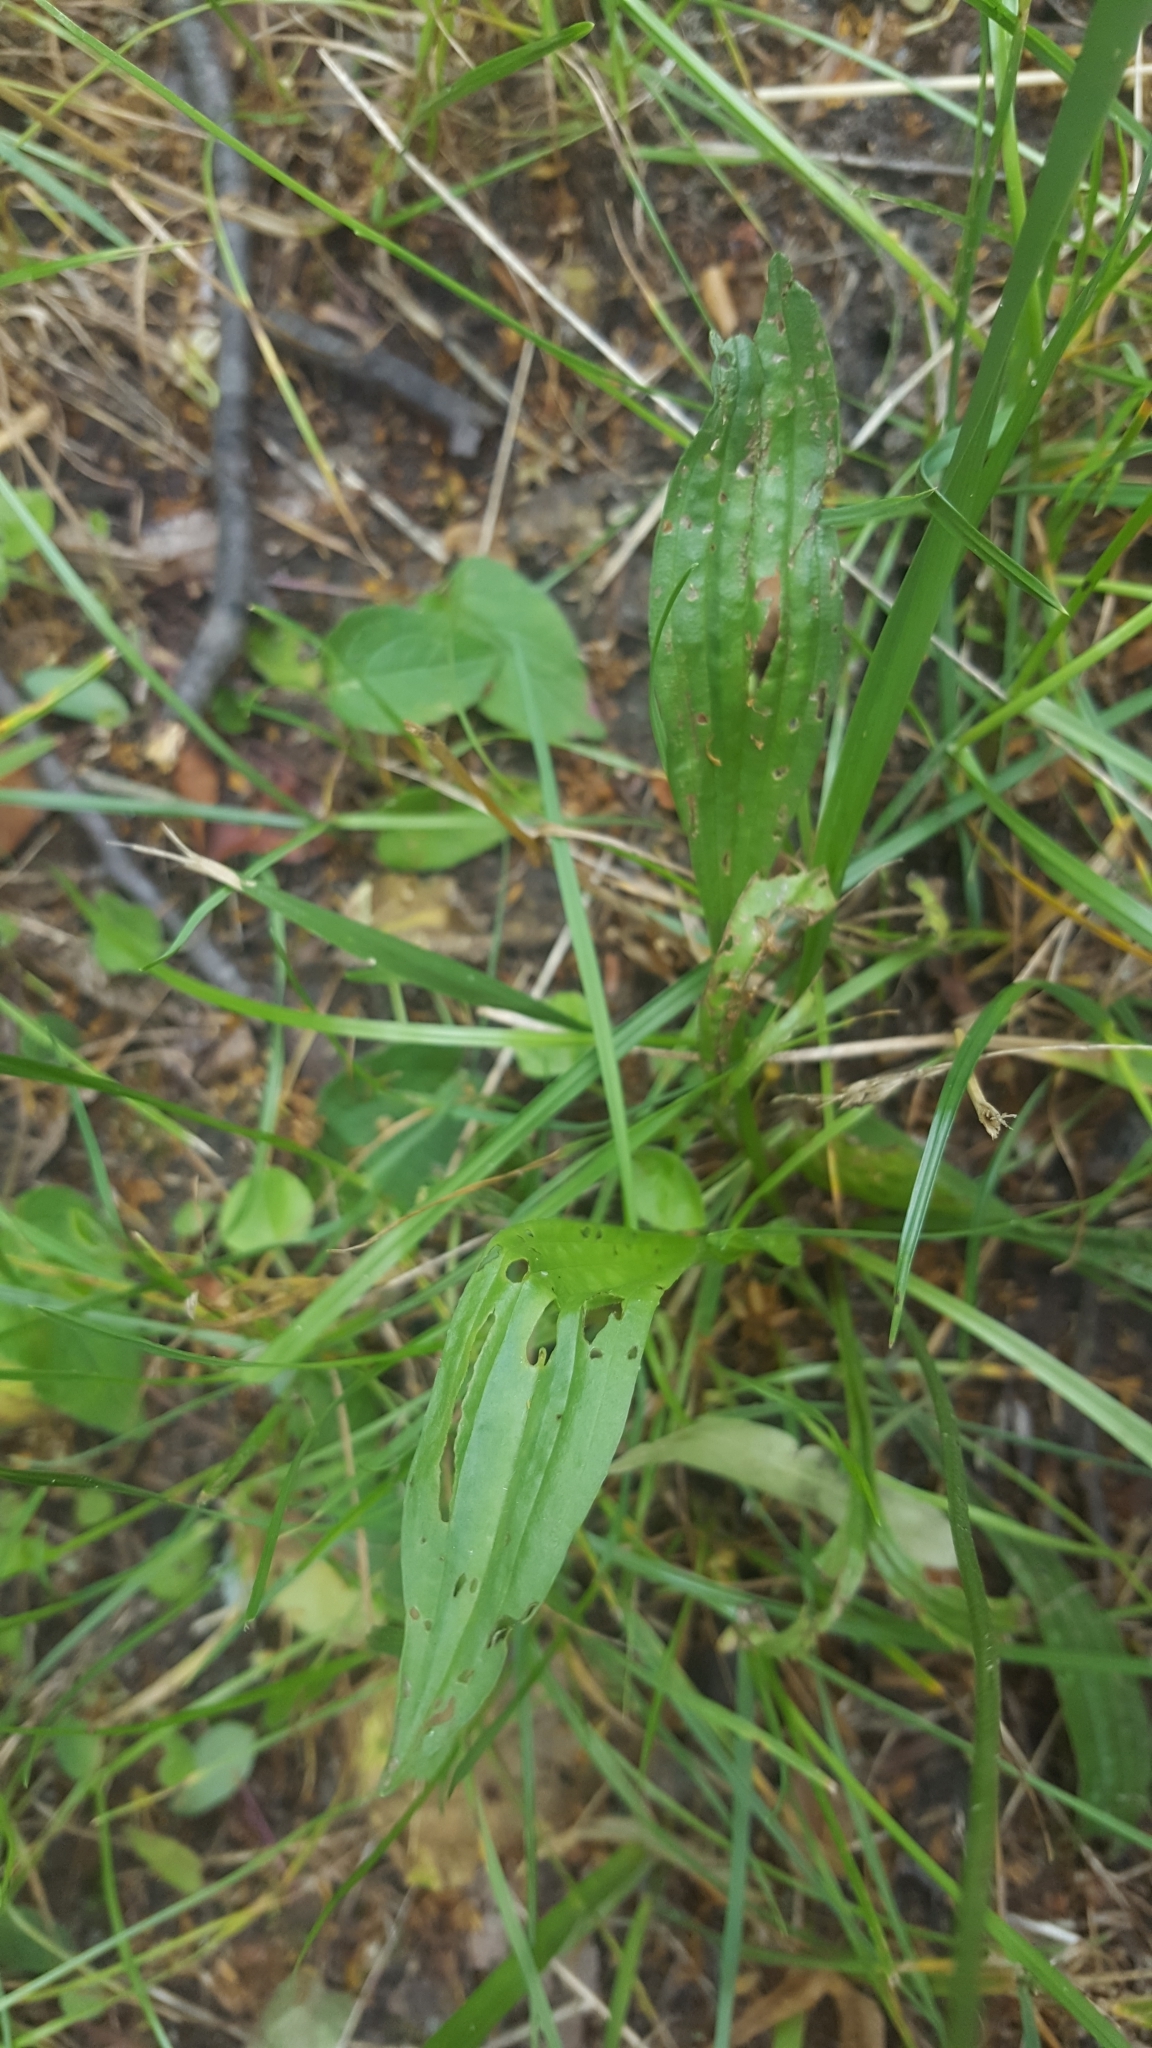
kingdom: Plantae
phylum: Tracheophyta
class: Magnoliopsida
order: Lamiales
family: Plantaginaceae
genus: Plantago
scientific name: Plantago lanceolata
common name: Ribwort plantain
